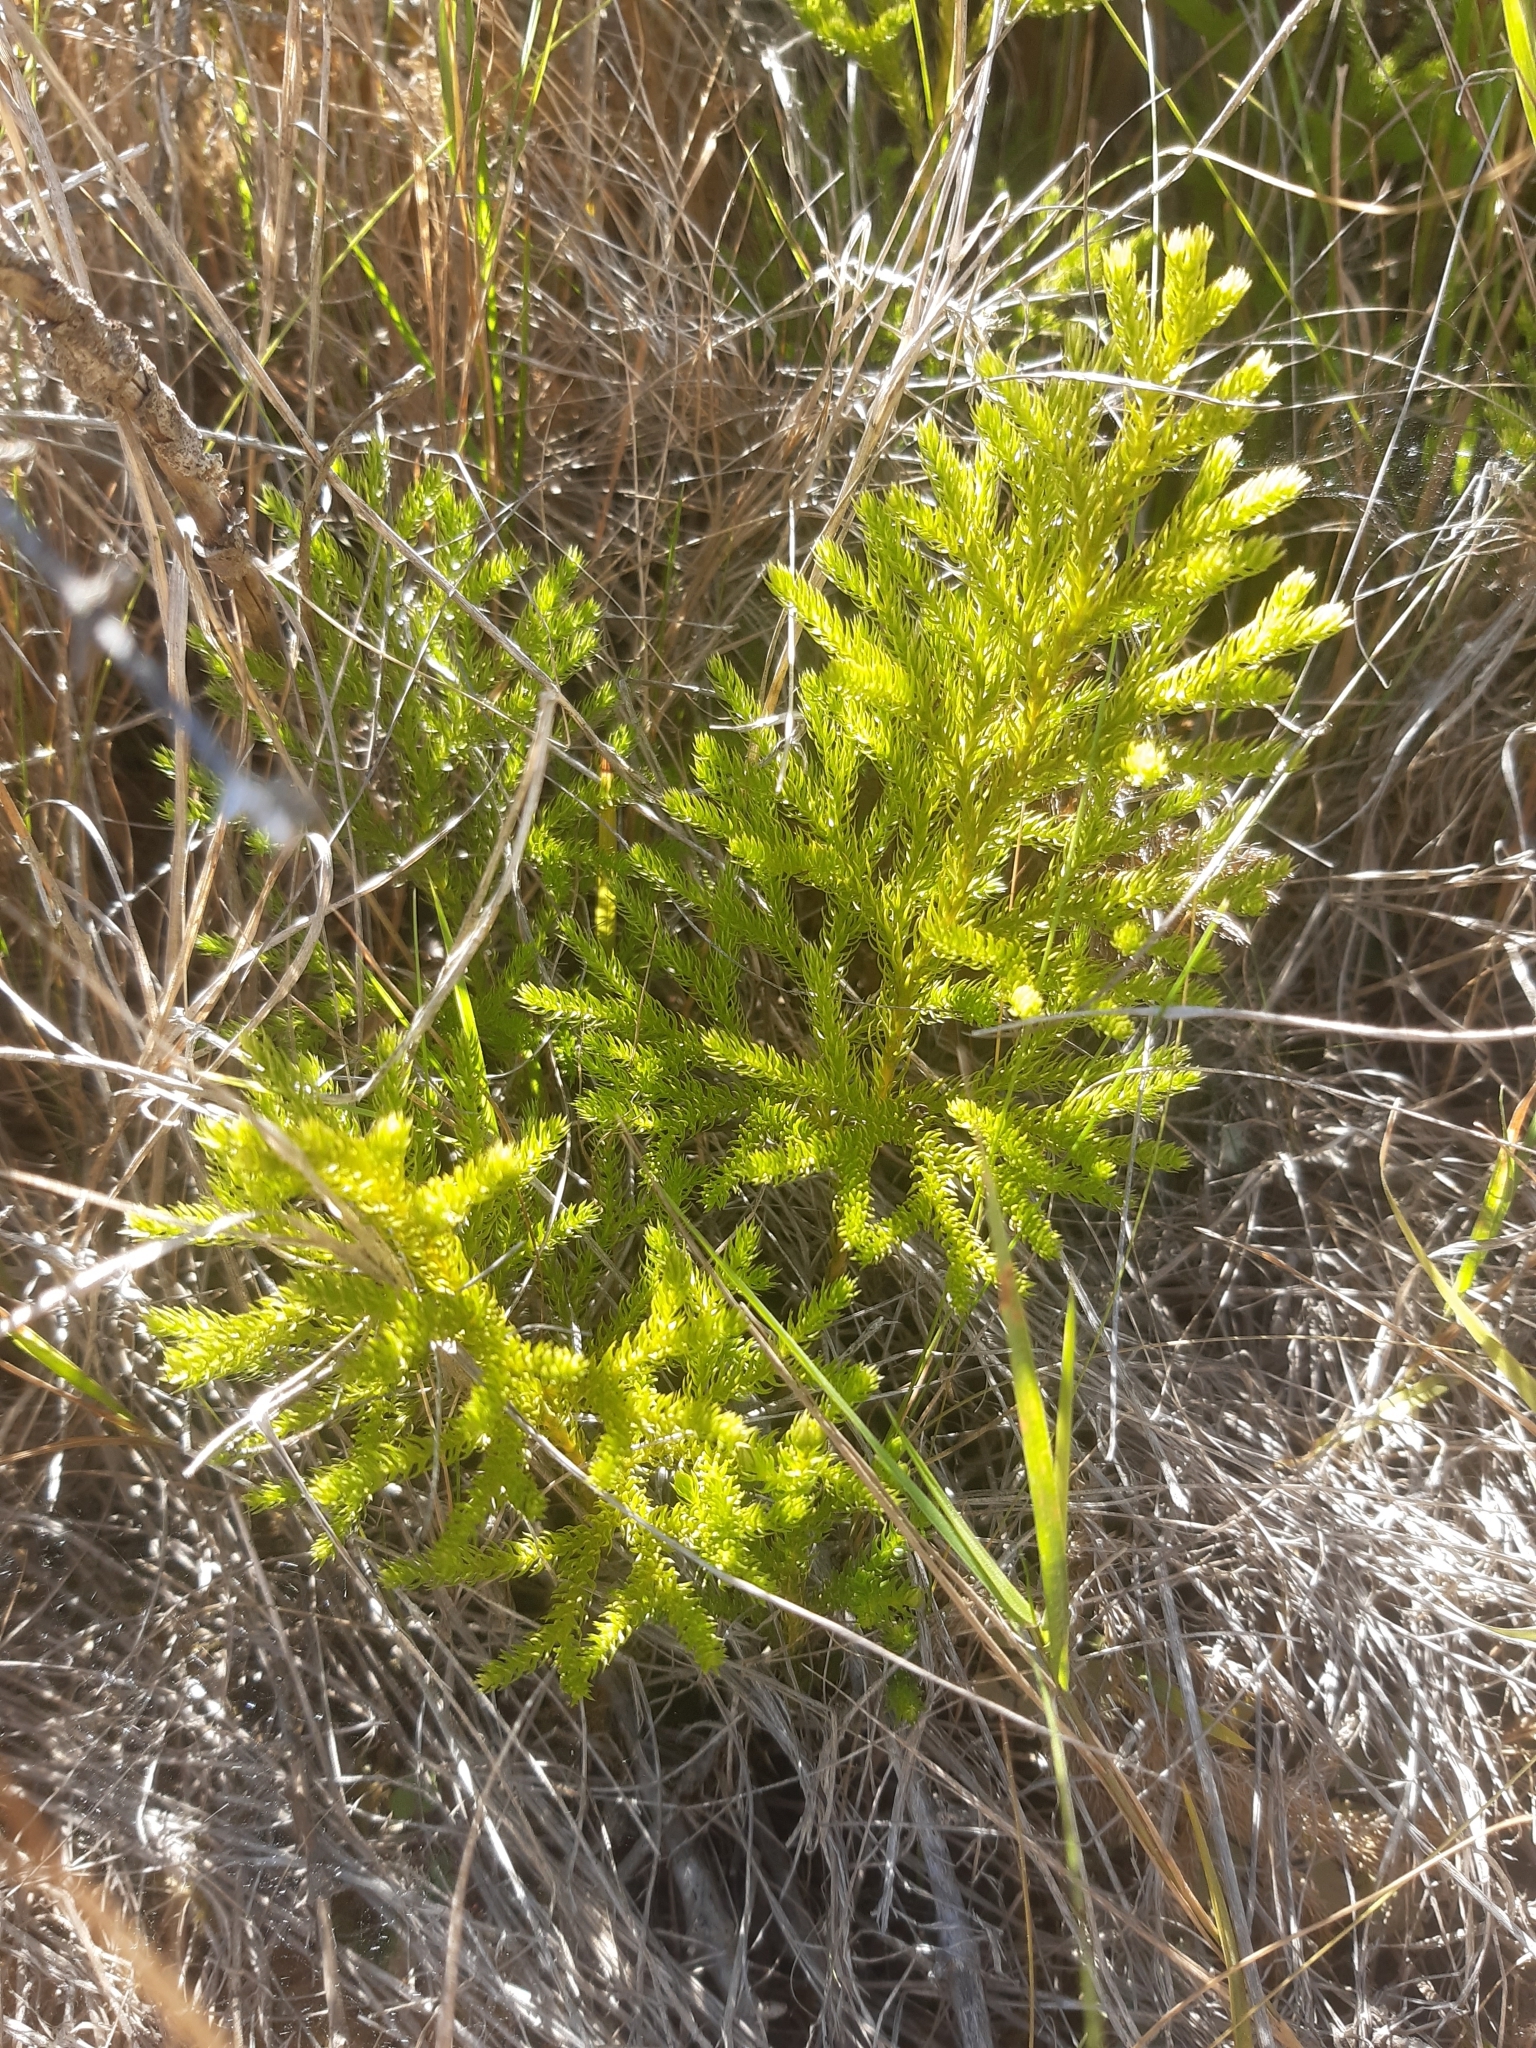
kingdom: Plantae
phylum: Tracheophyta
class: Lycopodiopsida
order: Lycopodiales
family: Lycopodiaceae
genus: Austrolycopodium
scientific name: Austrolycopodium fastigiatum
